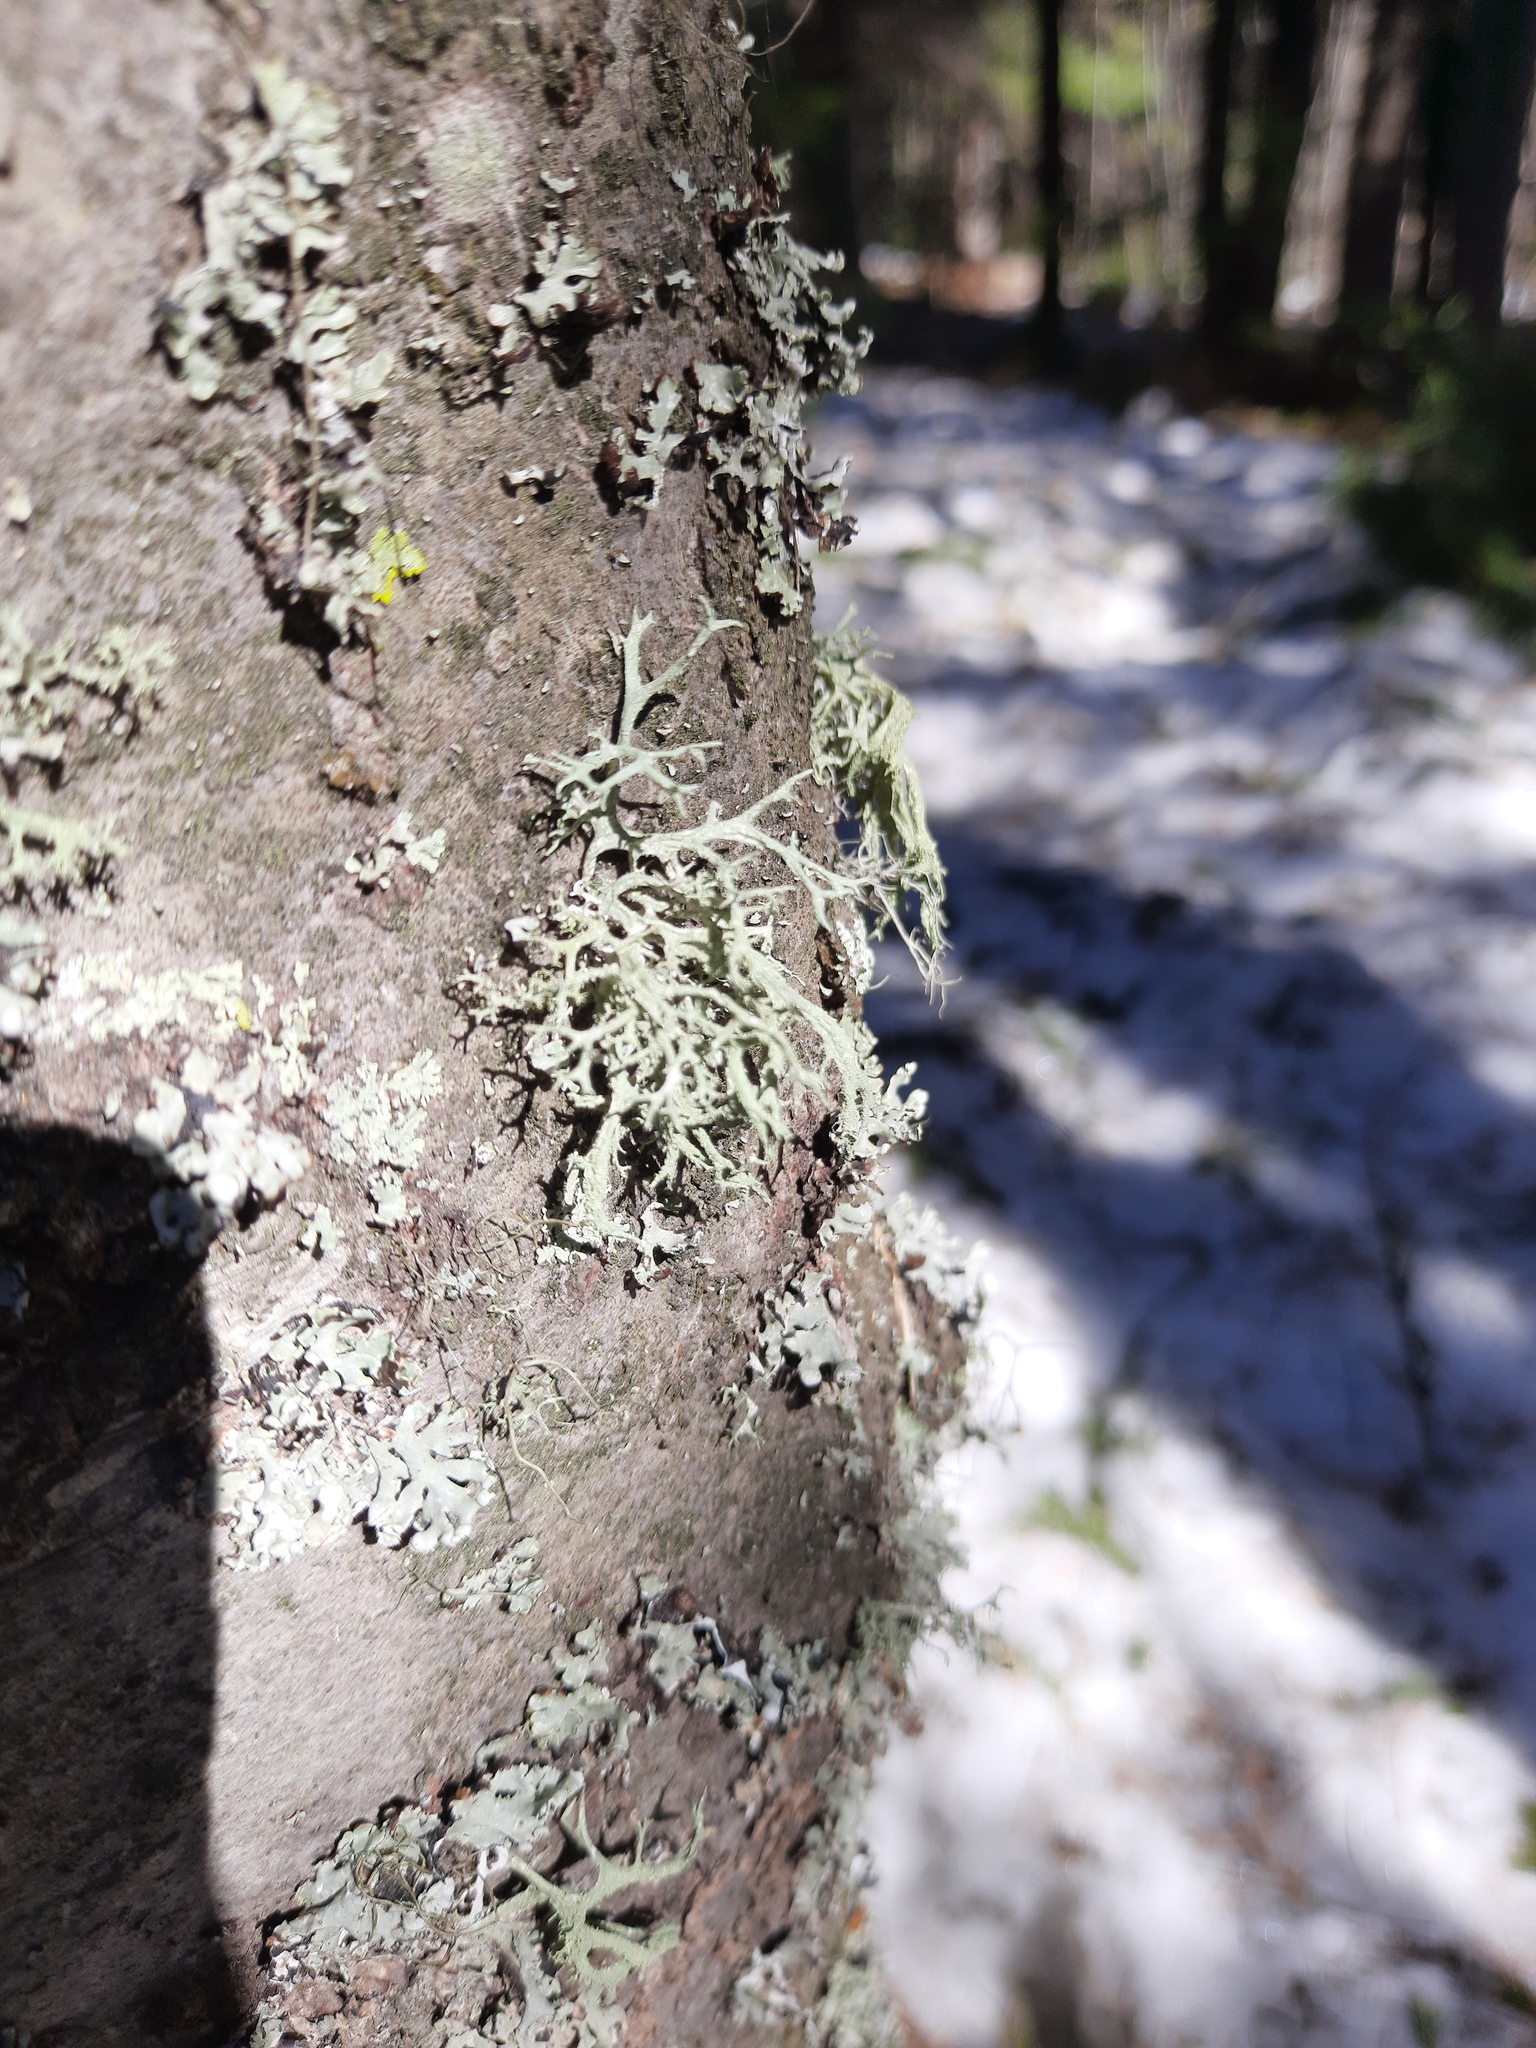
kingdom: Fungi
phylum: Ascomycota
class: Lecanoromycetes
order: Lecanorales
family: Parmeliaceae
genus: Evernia
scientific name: Evernia mesomorpha
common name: Boreal oak moss lichen
